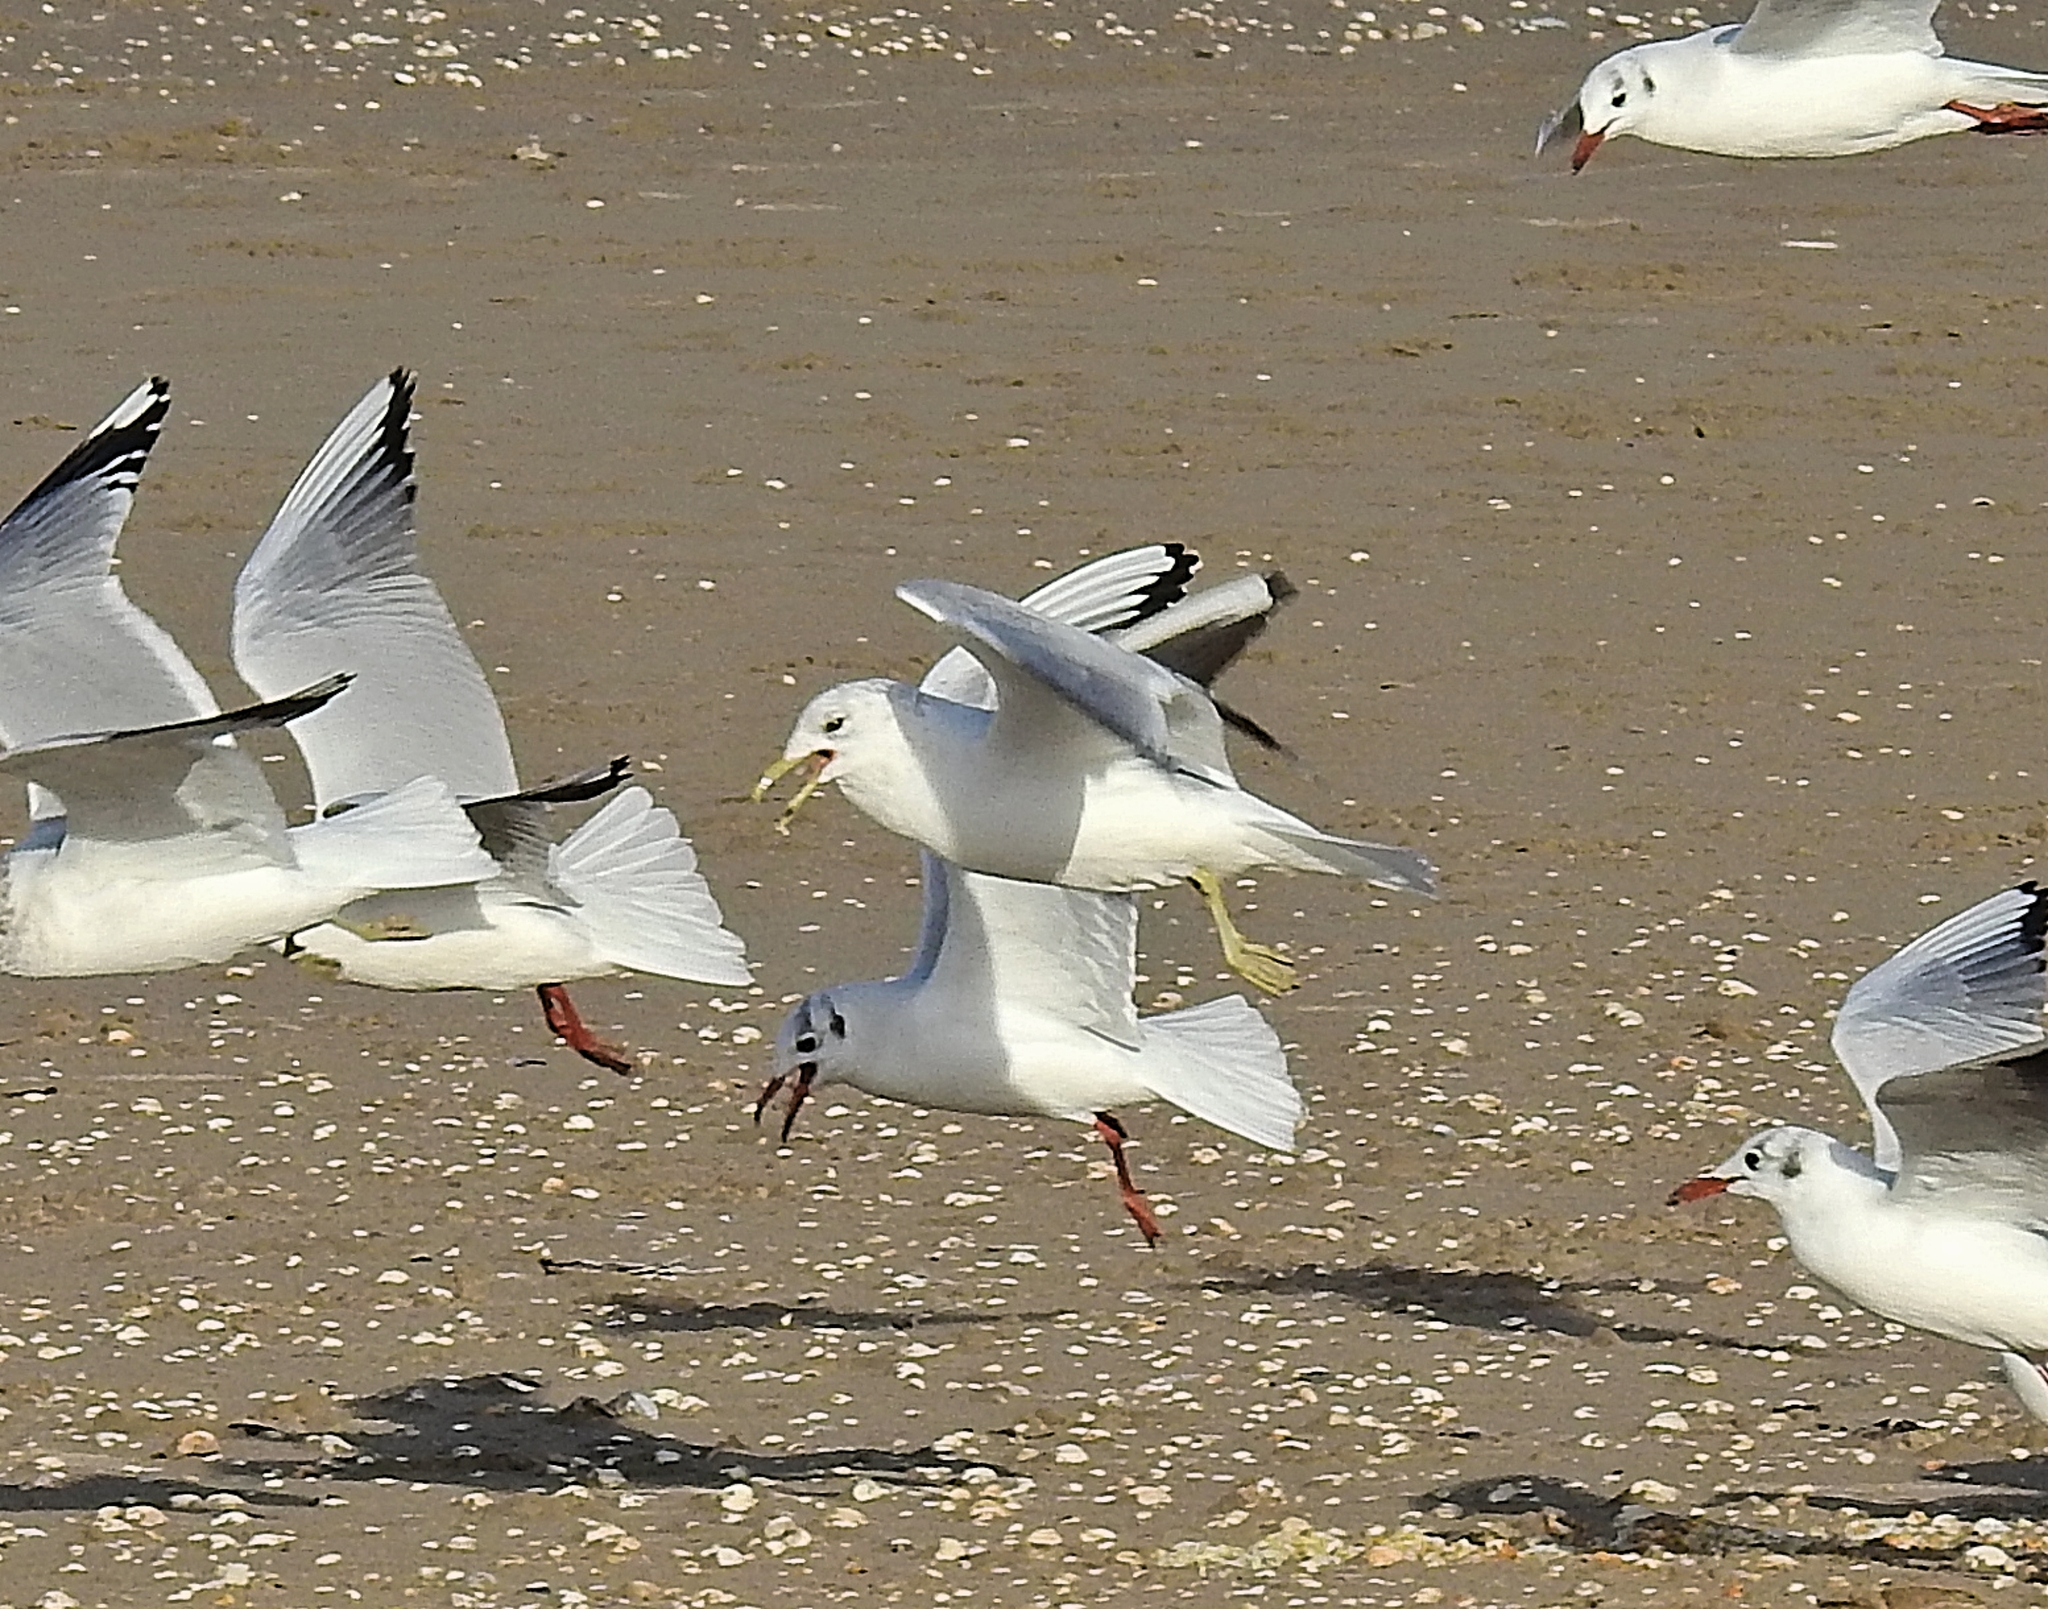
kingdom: Animalia
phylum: Chordata
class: Aves
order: Charadriiformes
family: Laridae
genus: Larus
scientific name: Larus canus
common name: Mew gull
